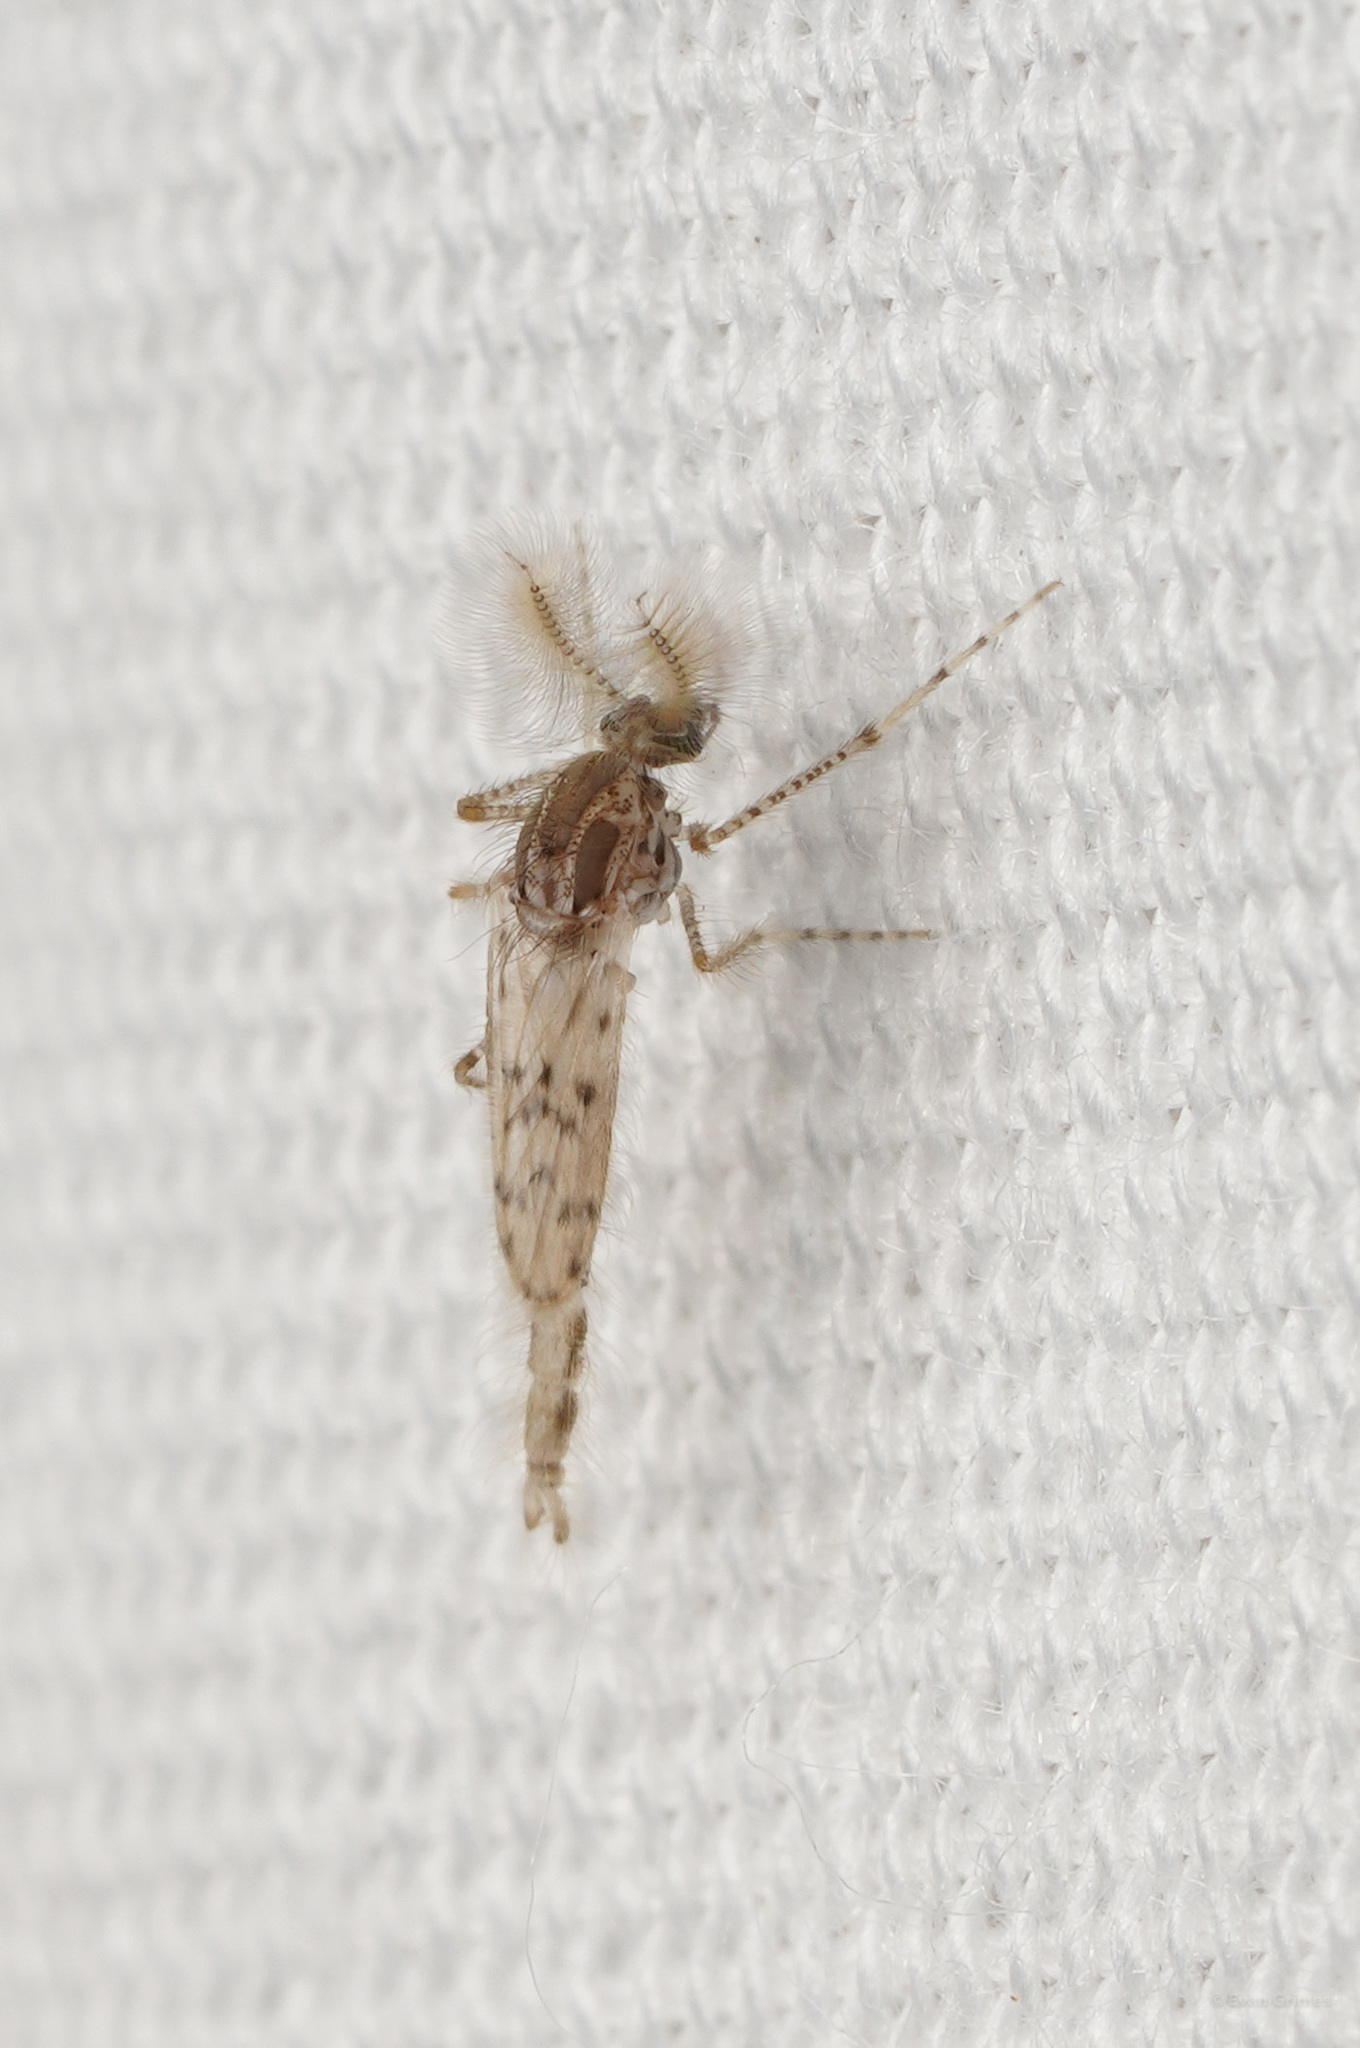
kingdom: Animalia
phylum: Arthropoda
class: Insecta
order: Diptera
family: Chaoboridae
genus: Chaoborus
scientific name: Chaoborus punctipennis
